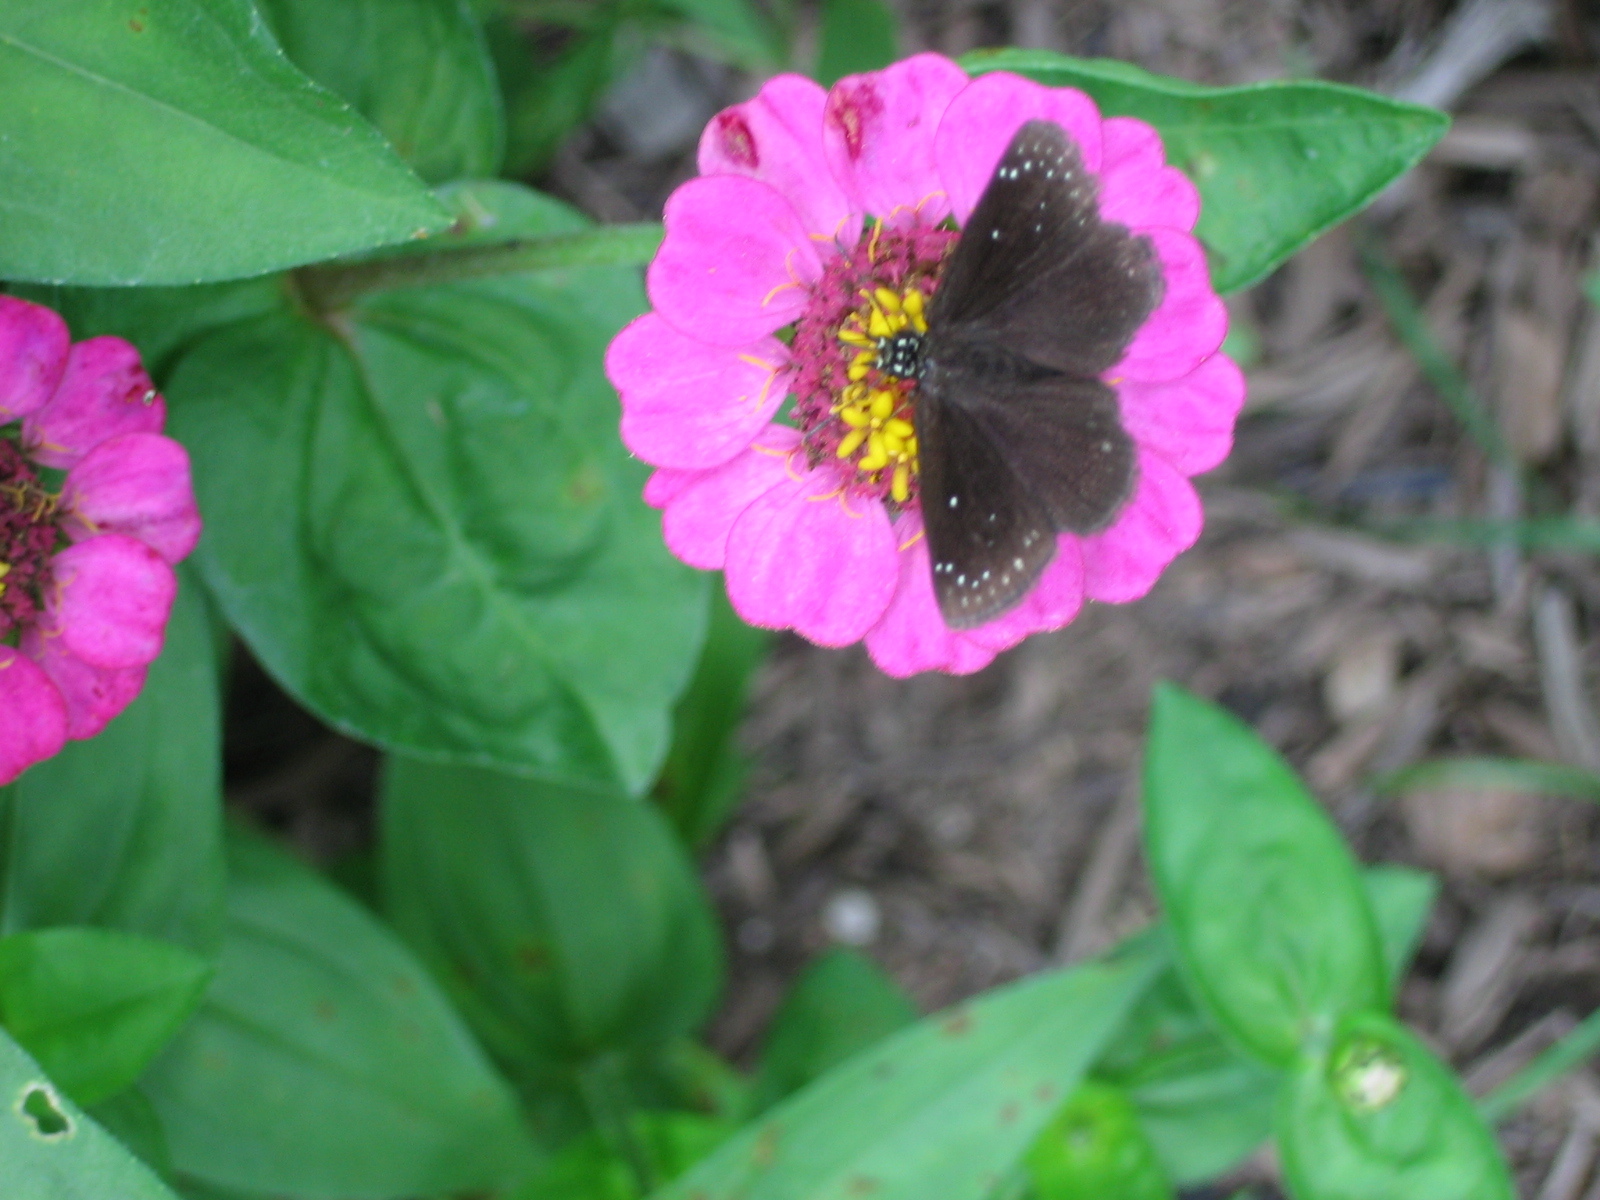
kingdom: Animalia
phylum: Arthropoda
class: Insecta
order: Lepidoptera
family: Hesperiidae
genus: Pholisora
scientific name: Pholisora catullus
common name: Common sootywing
